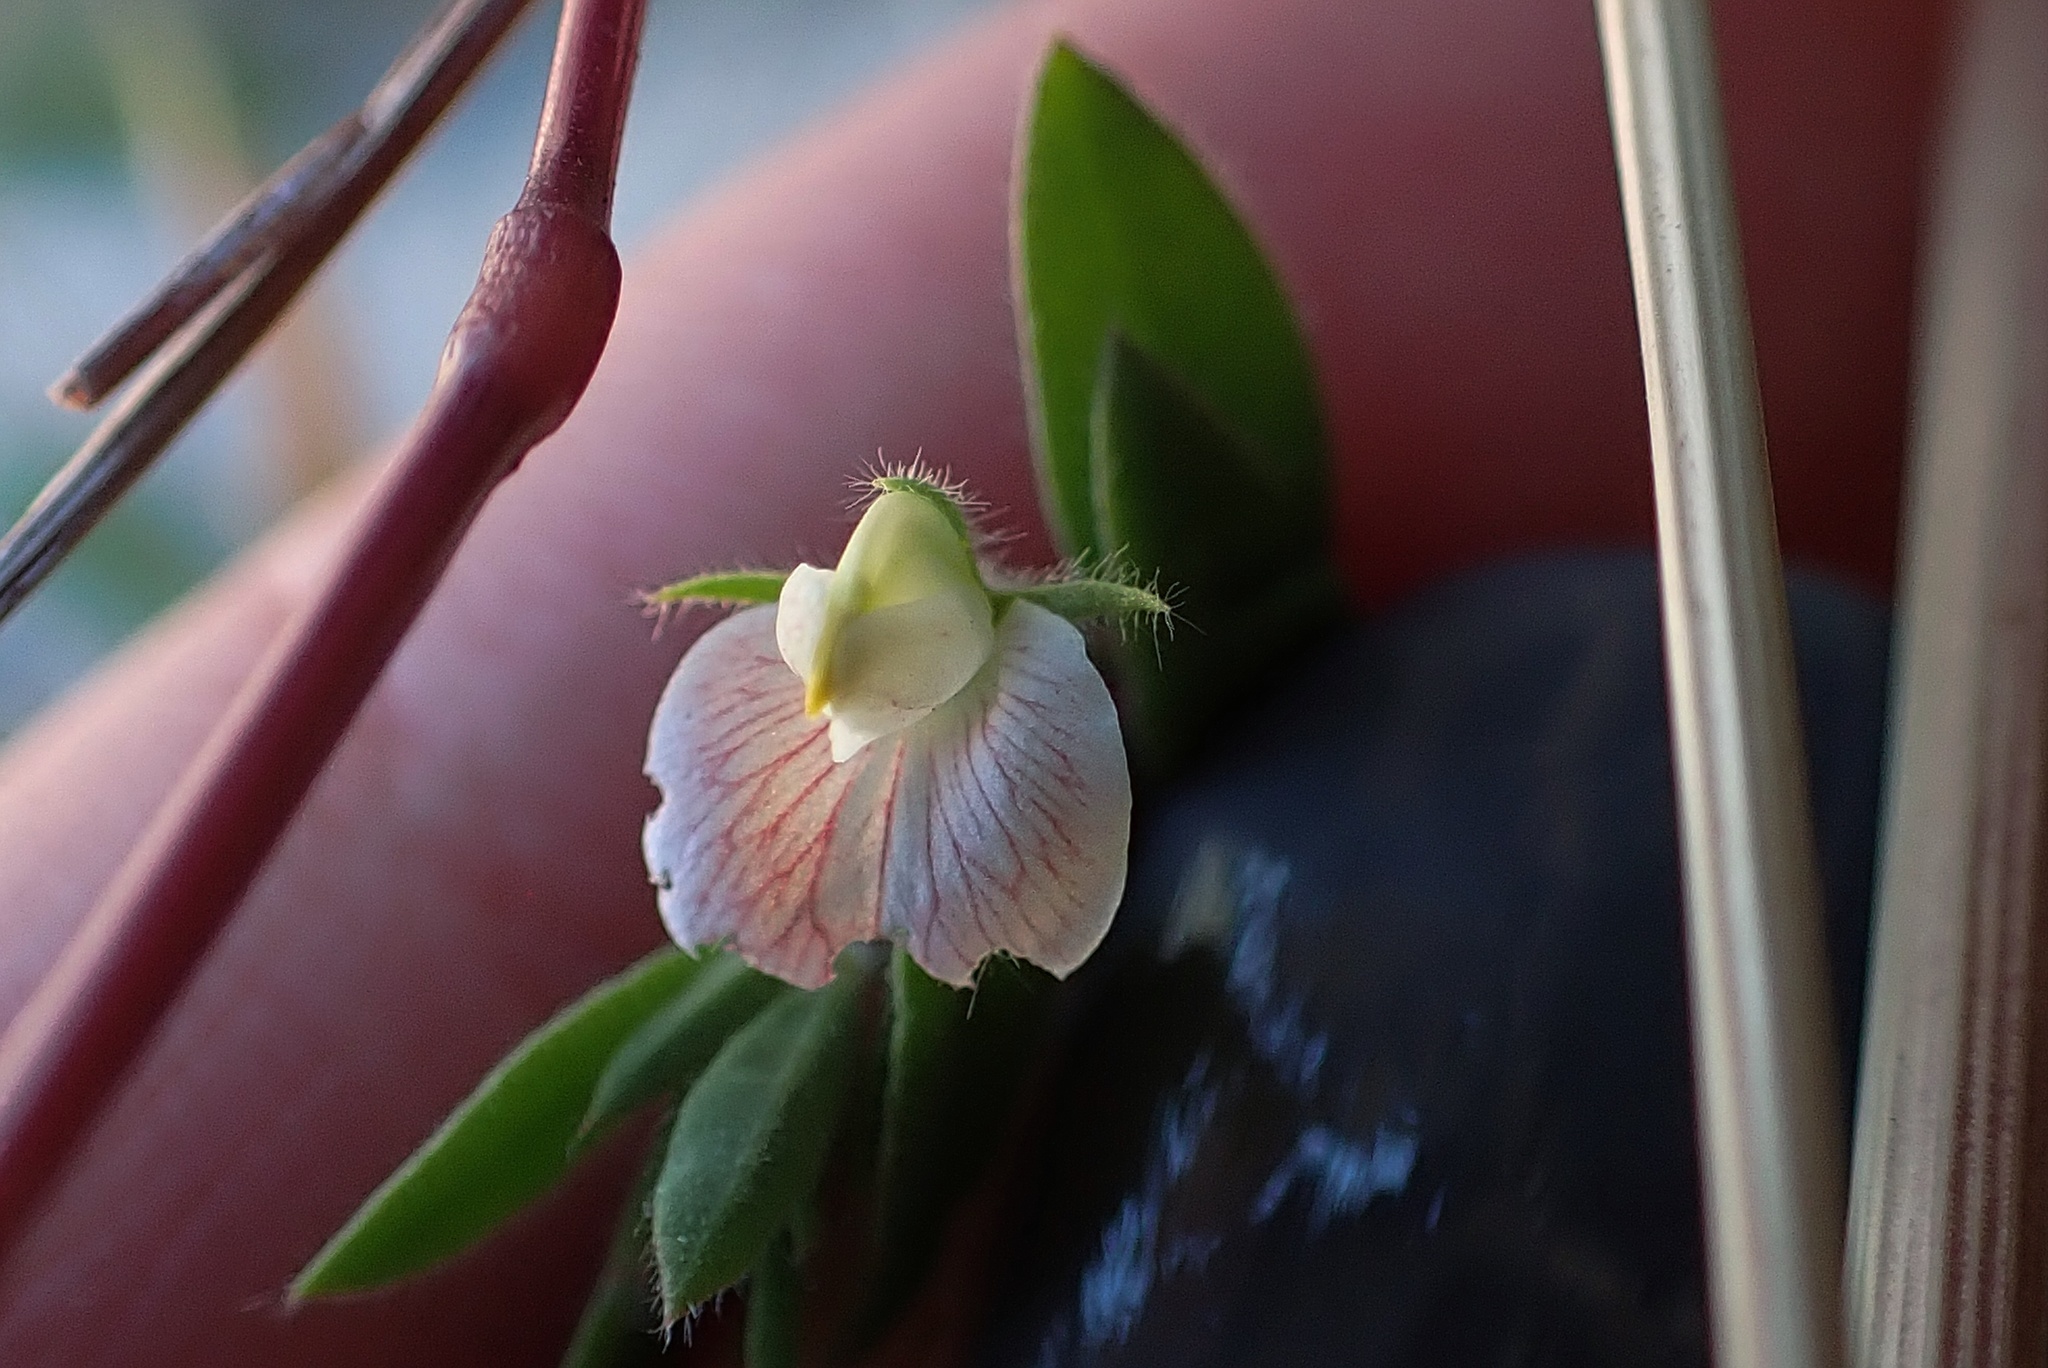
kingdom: Plantae
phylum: Tracheophyta
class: Magnoliopsida
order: Fabales
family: Fabaceae
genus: Acmispon
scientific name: Acmispon americanus
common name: American bird's-foot trefoil
